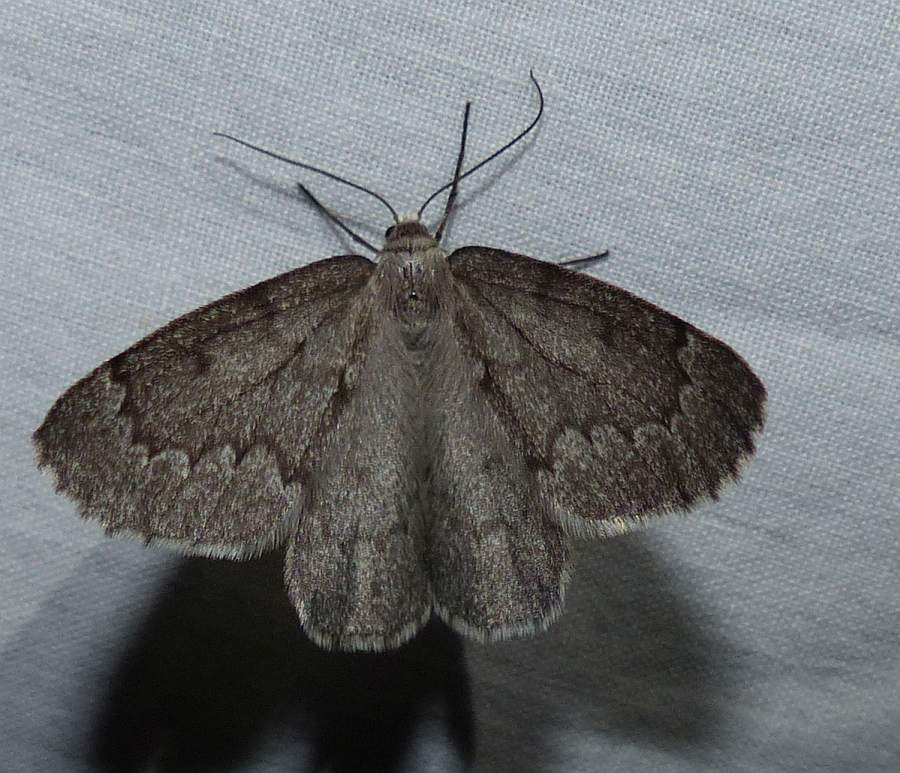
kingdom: Animalia
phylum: Arthropoda
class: Insecta
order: Lepidoptera
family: Geometridae
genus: Nepytia
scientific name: Nepytia pellucidaria
